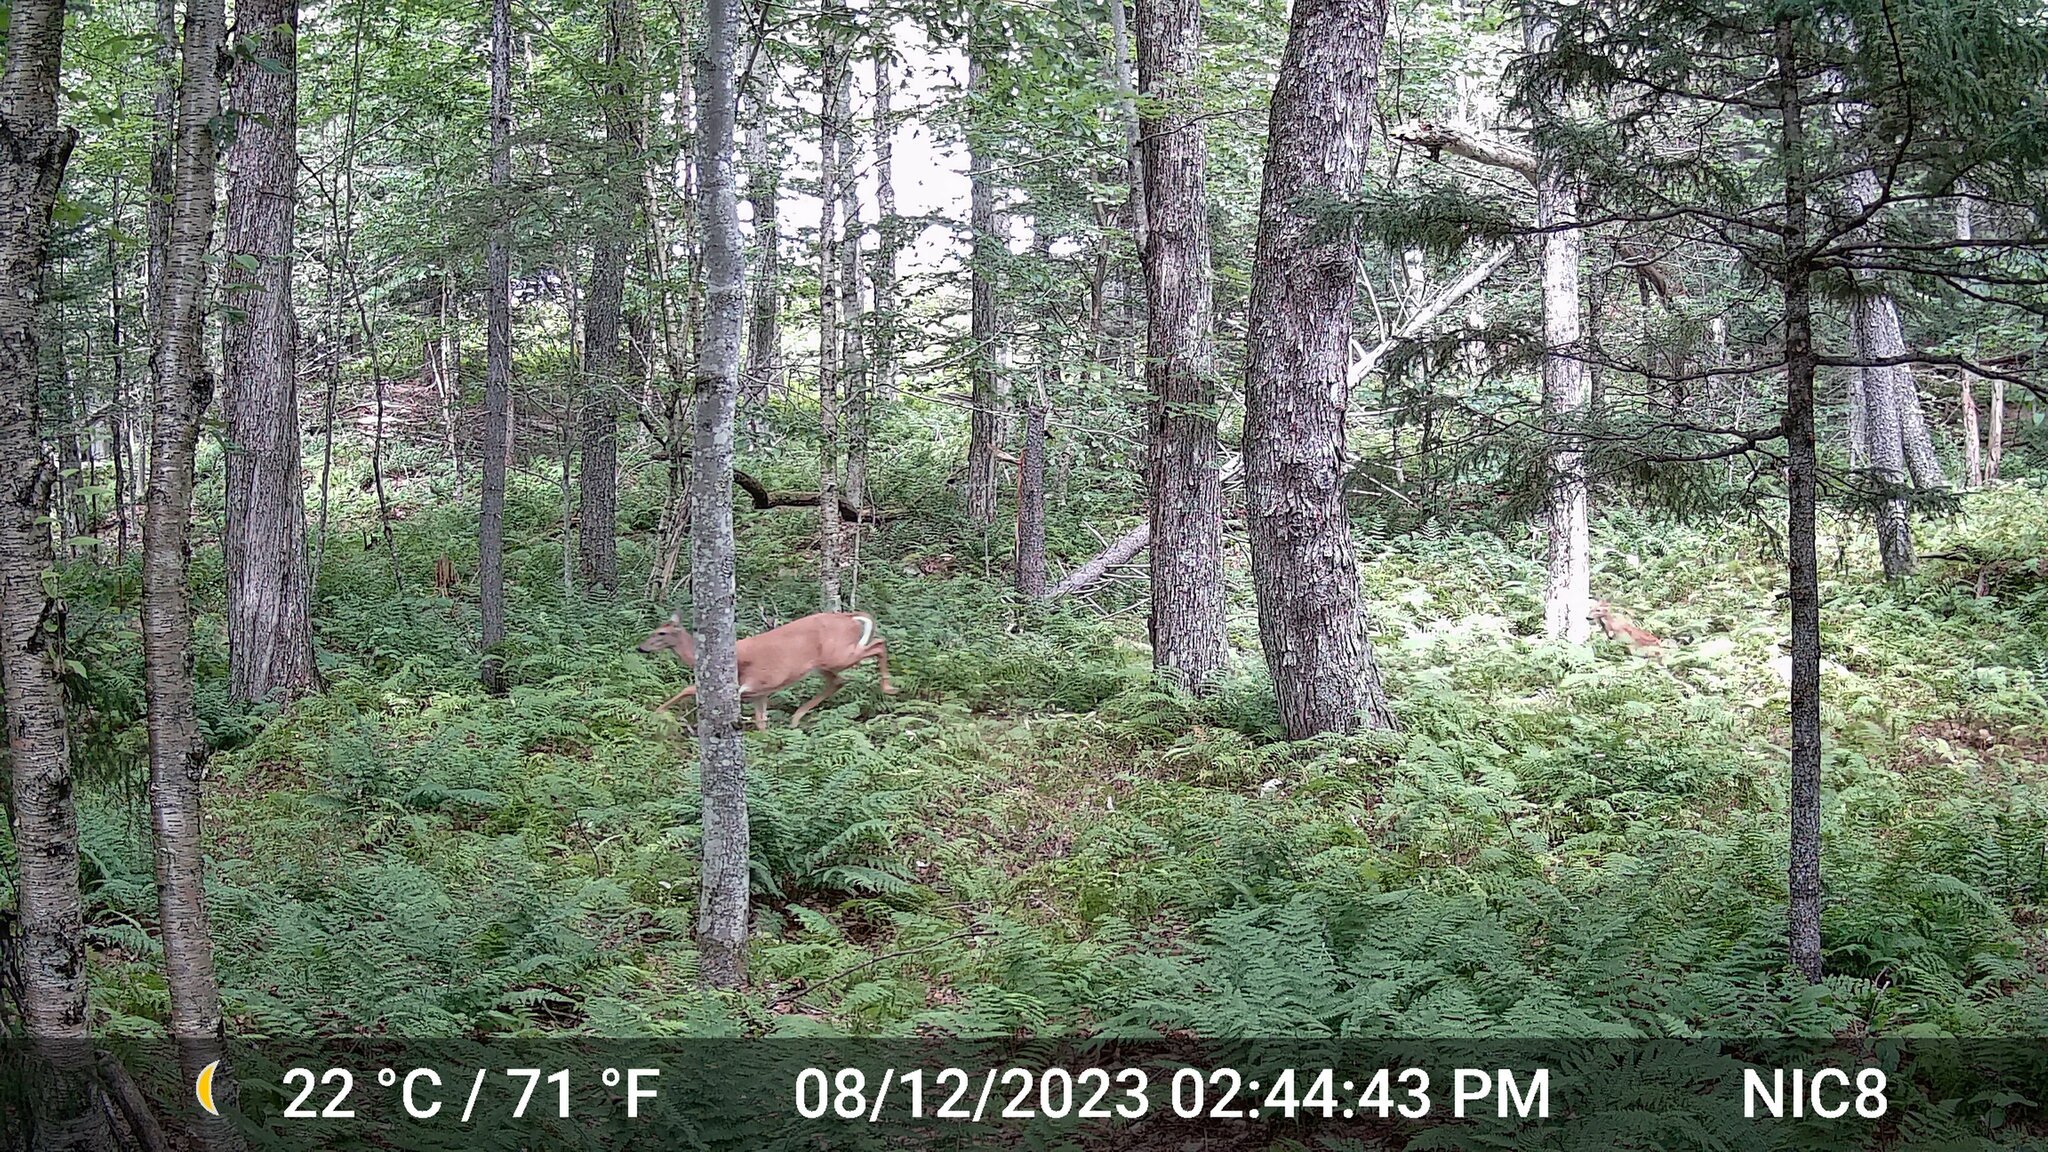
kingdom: Animalia
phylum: Chordata
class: Mammalia
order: Artiodactyla
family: Cervidae
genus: Odocoileus
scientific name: Odocoileus virginianus
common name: White-tailed deer
